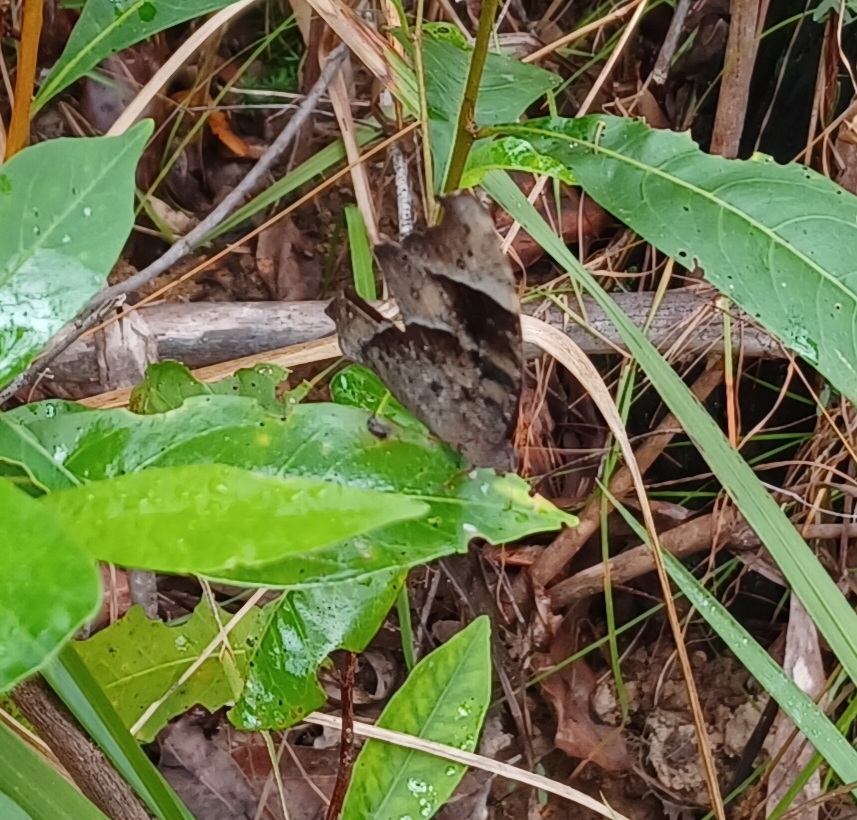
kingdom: Animalia
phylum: Arthropoda
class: Insecta
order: Lepidoptera
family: Nymphalidae
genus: Melanitis
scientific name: Melanitis leda
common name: Twilight brown
